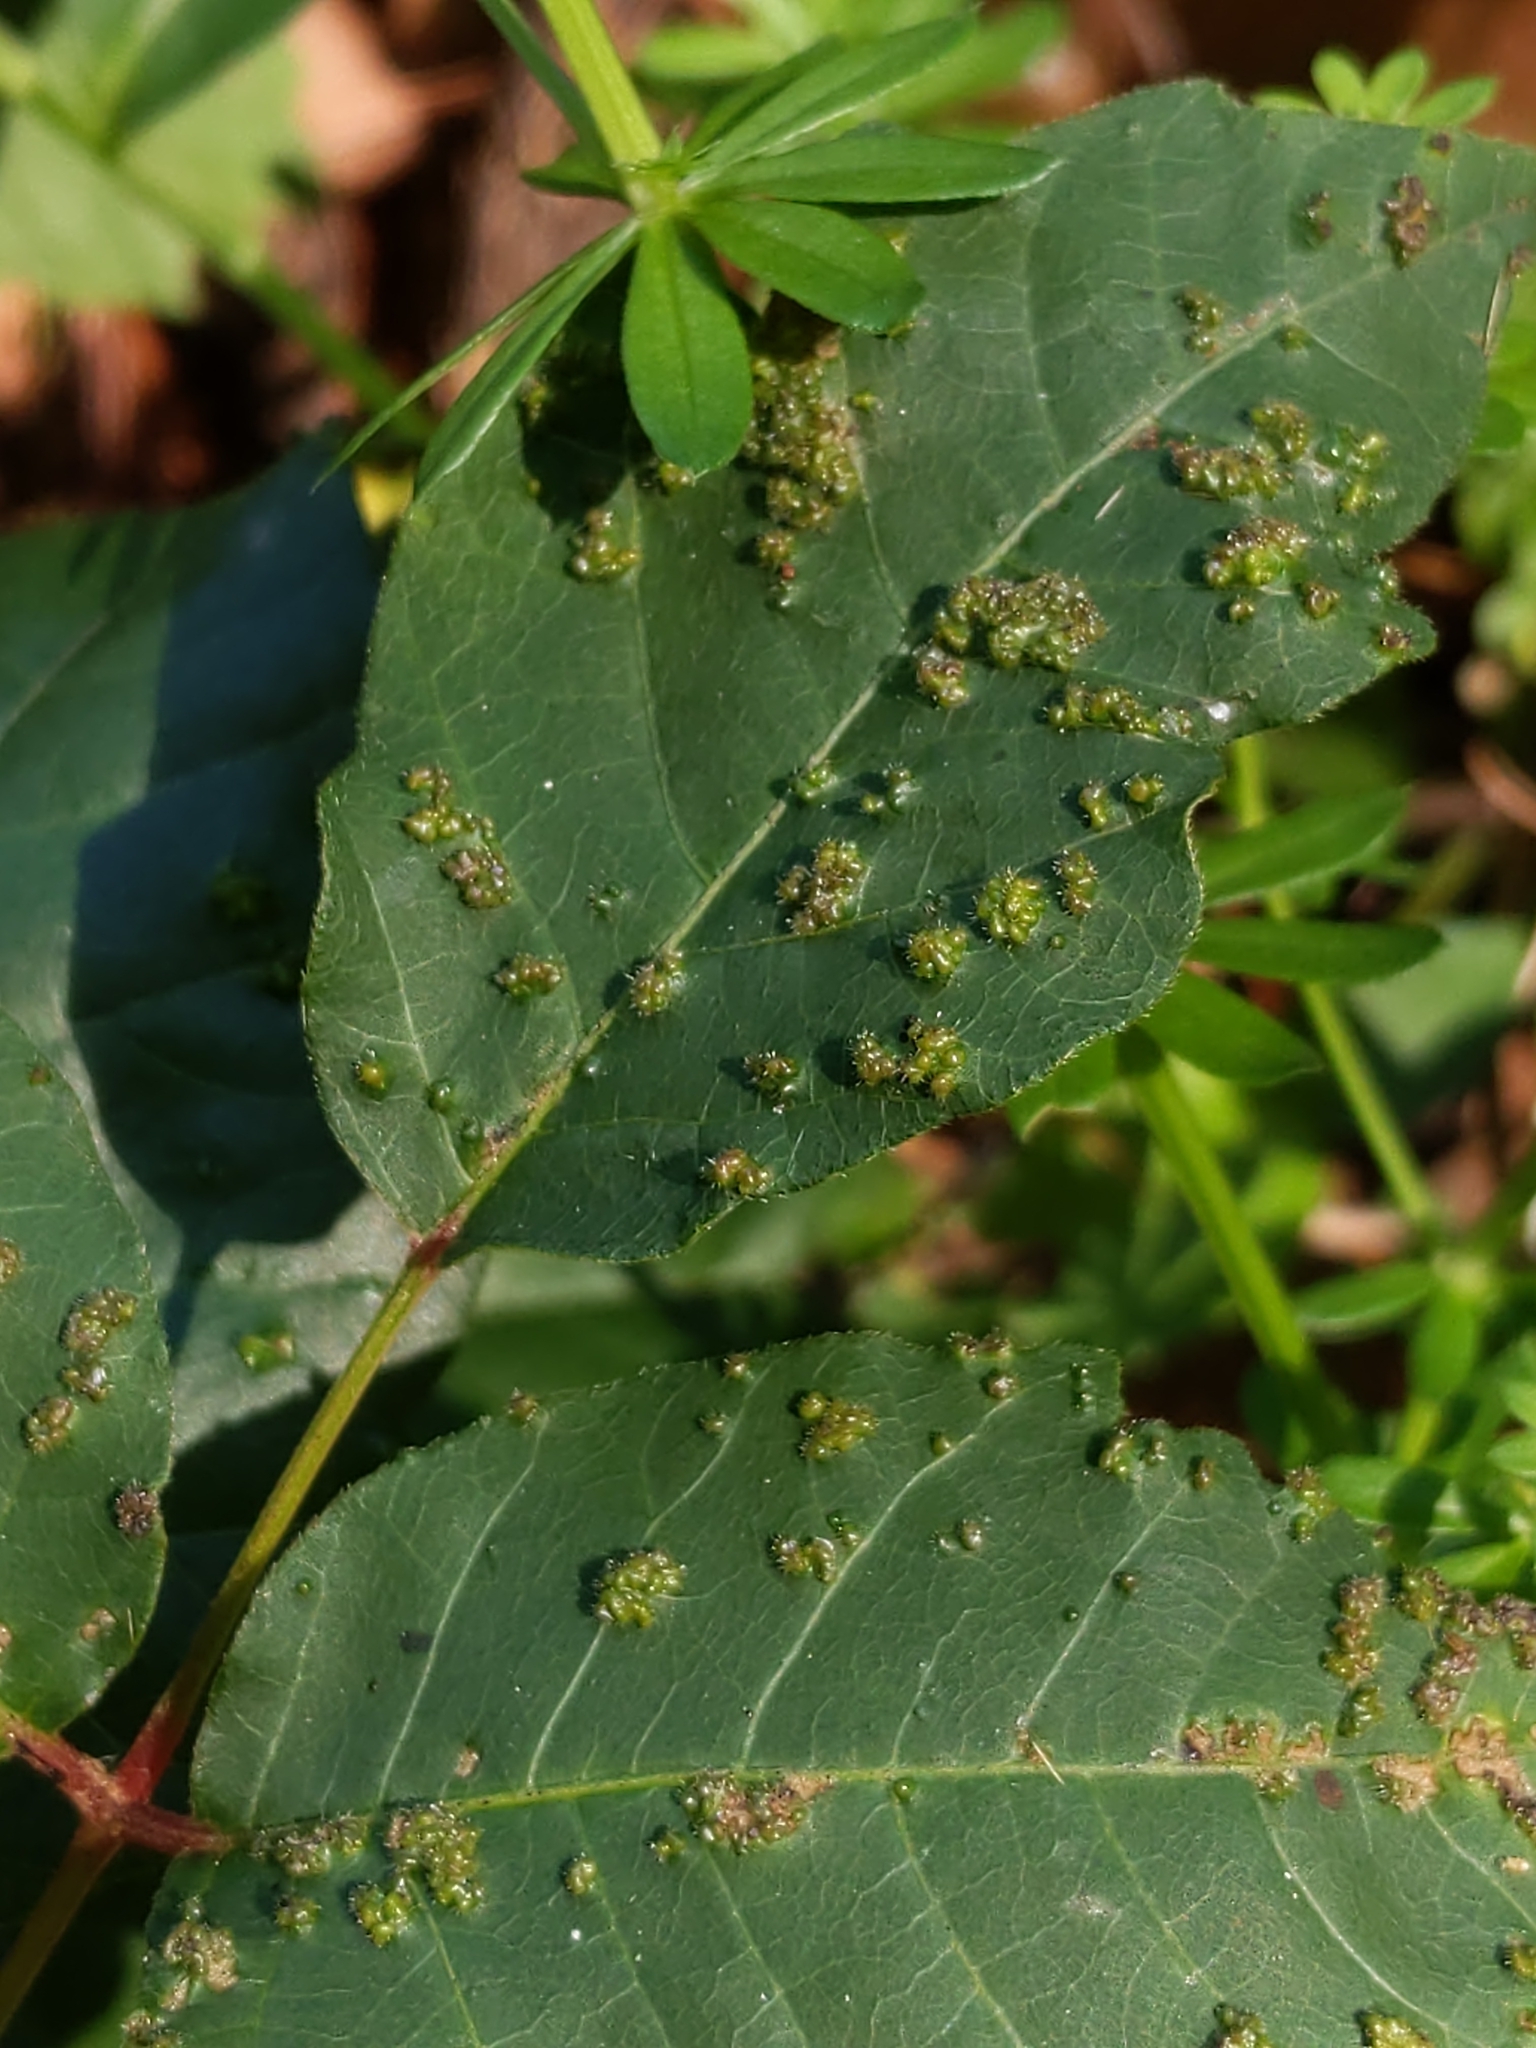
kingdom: Animalia
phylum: Arthropoda
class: Arachnida
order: Trombidiformes
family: Eriophyidae
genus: Aculops
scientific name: Aculops
